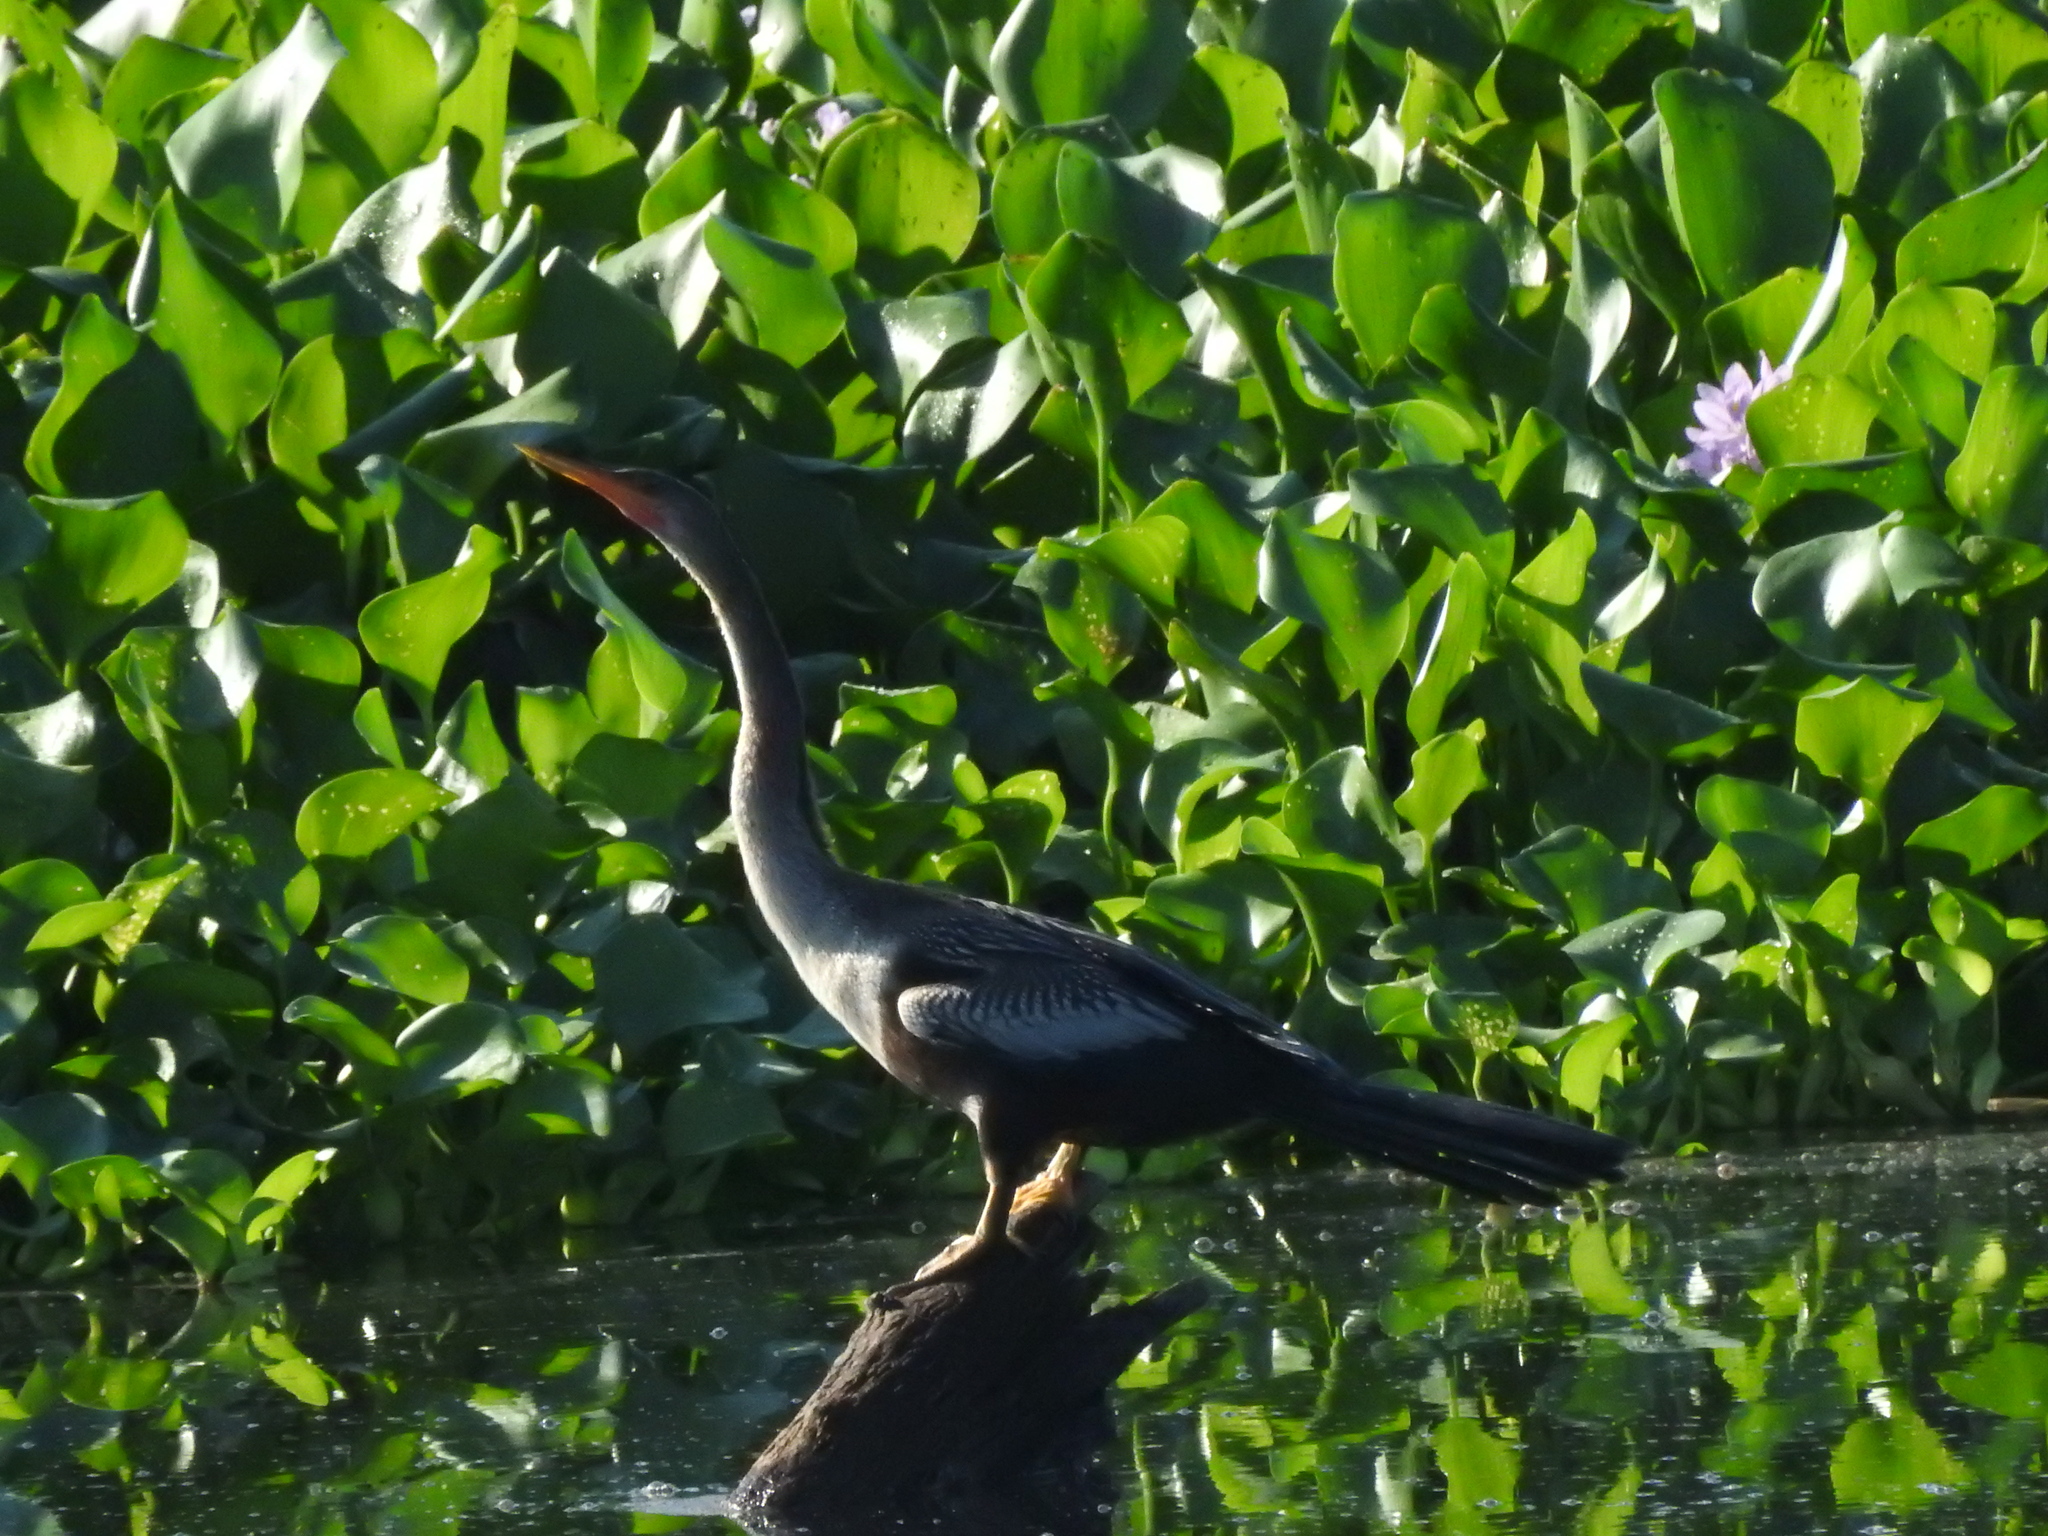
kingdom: Animalia
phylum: Chordata
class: Aves
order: Suliformes
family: Anhingidae
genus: Anhinga
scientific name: Anhinga anhinga
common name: Anhinga
